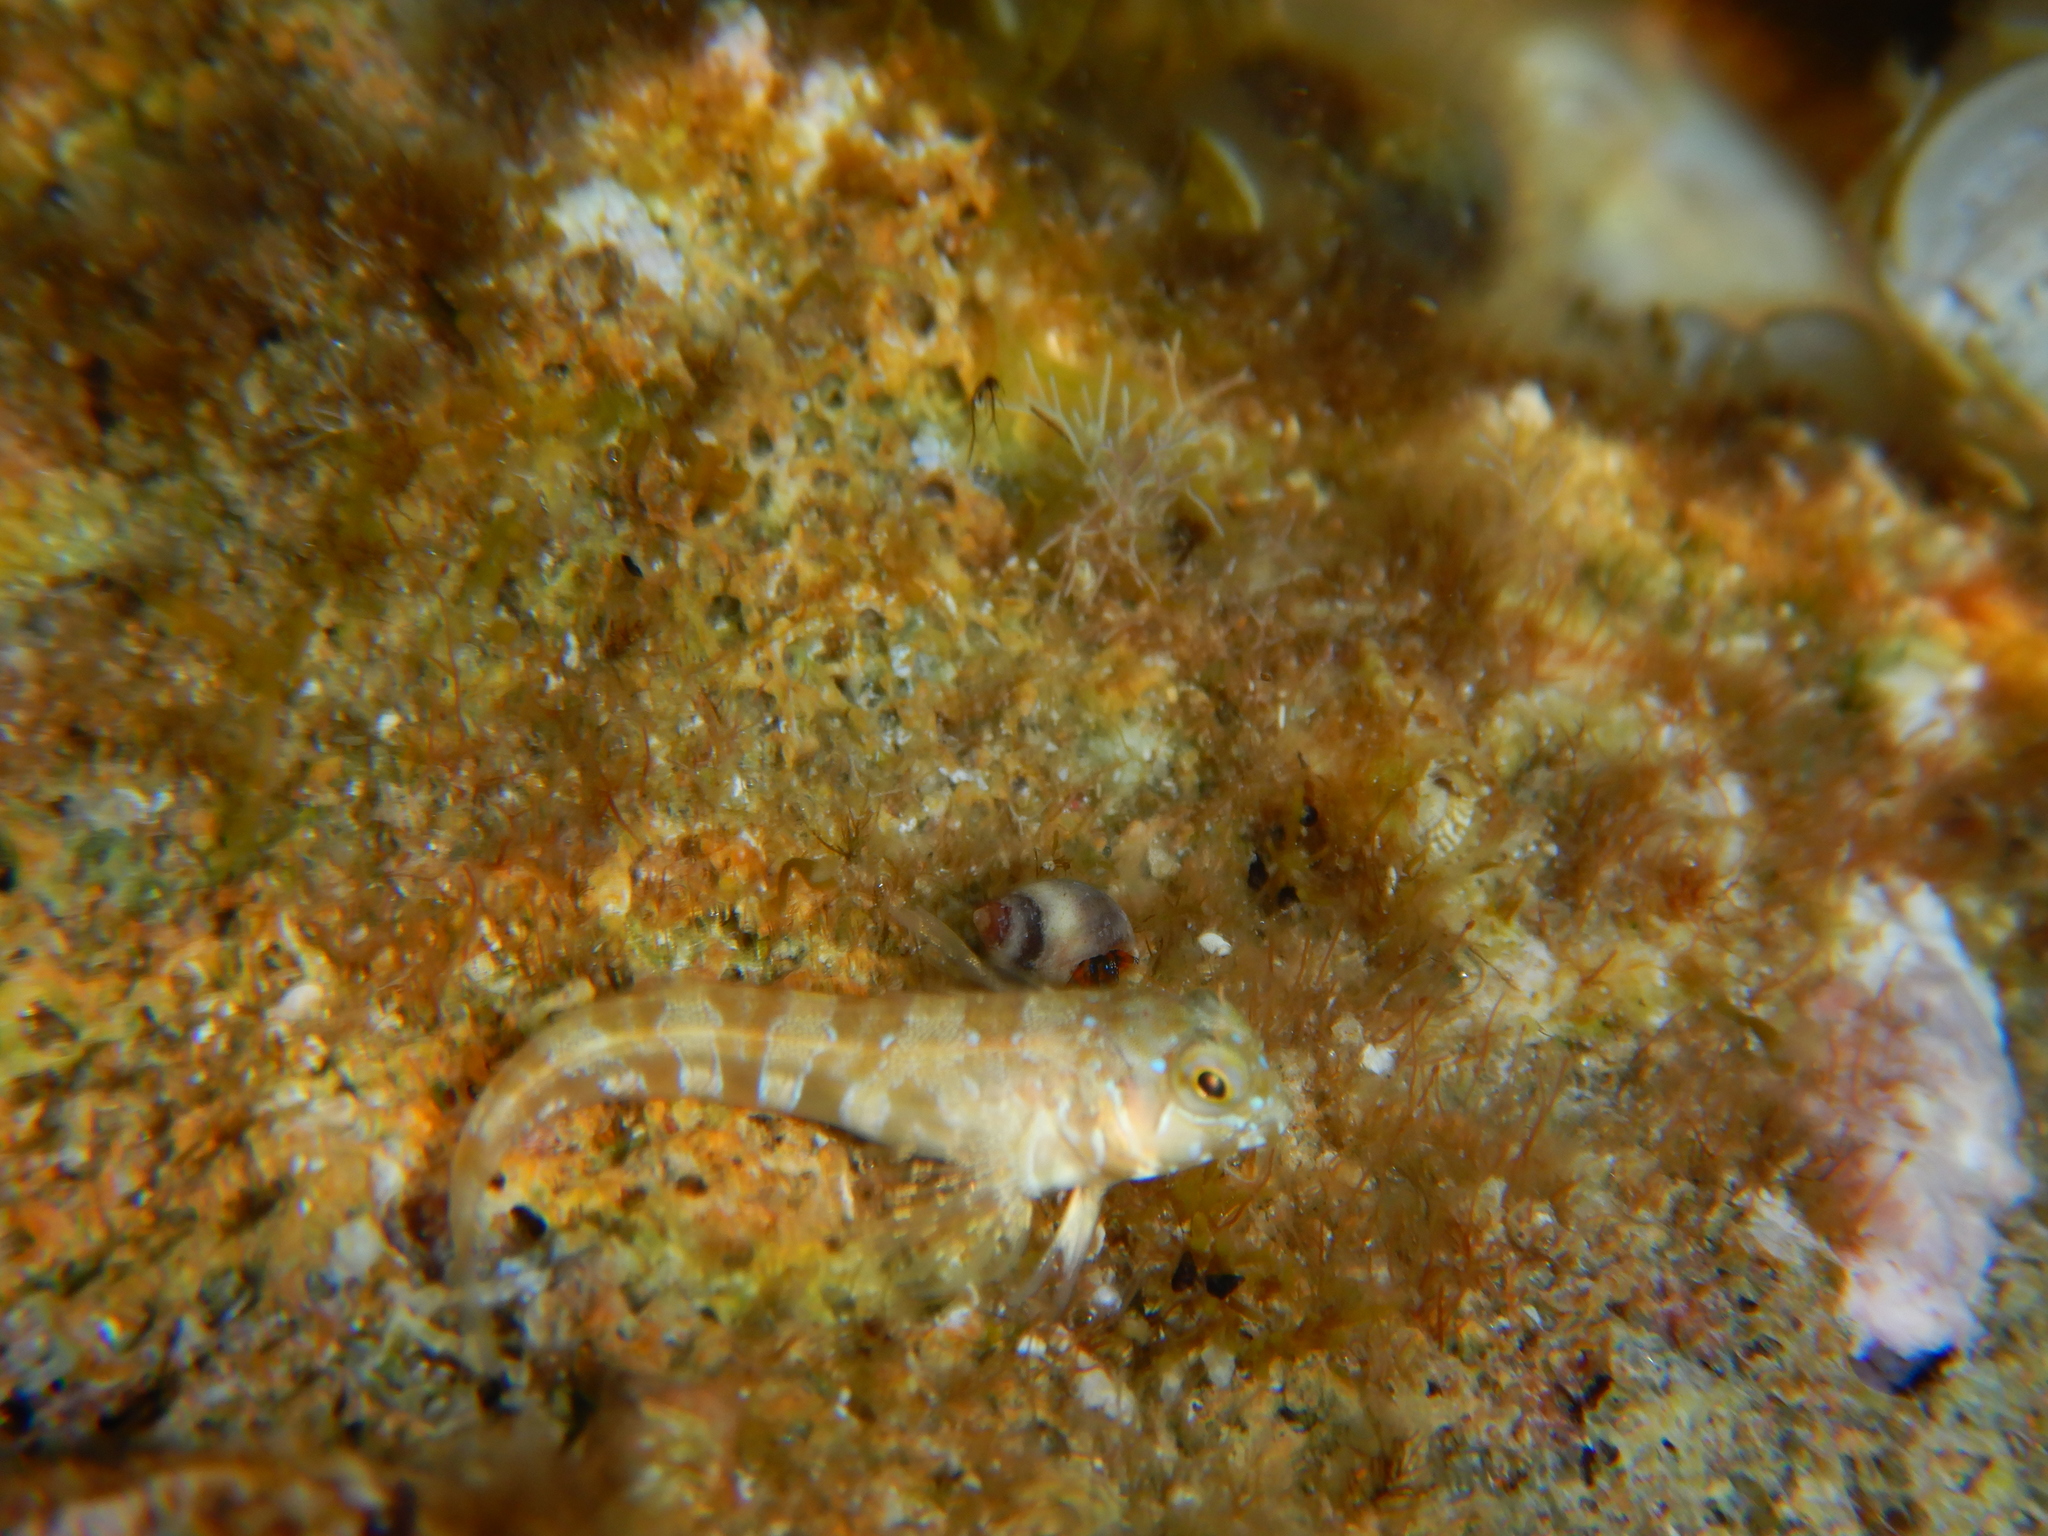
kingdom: Animalia
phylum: Chordata
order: Perciformes
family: Blenniidae
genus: Aidablennius
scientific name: Aidablennius sphynx
